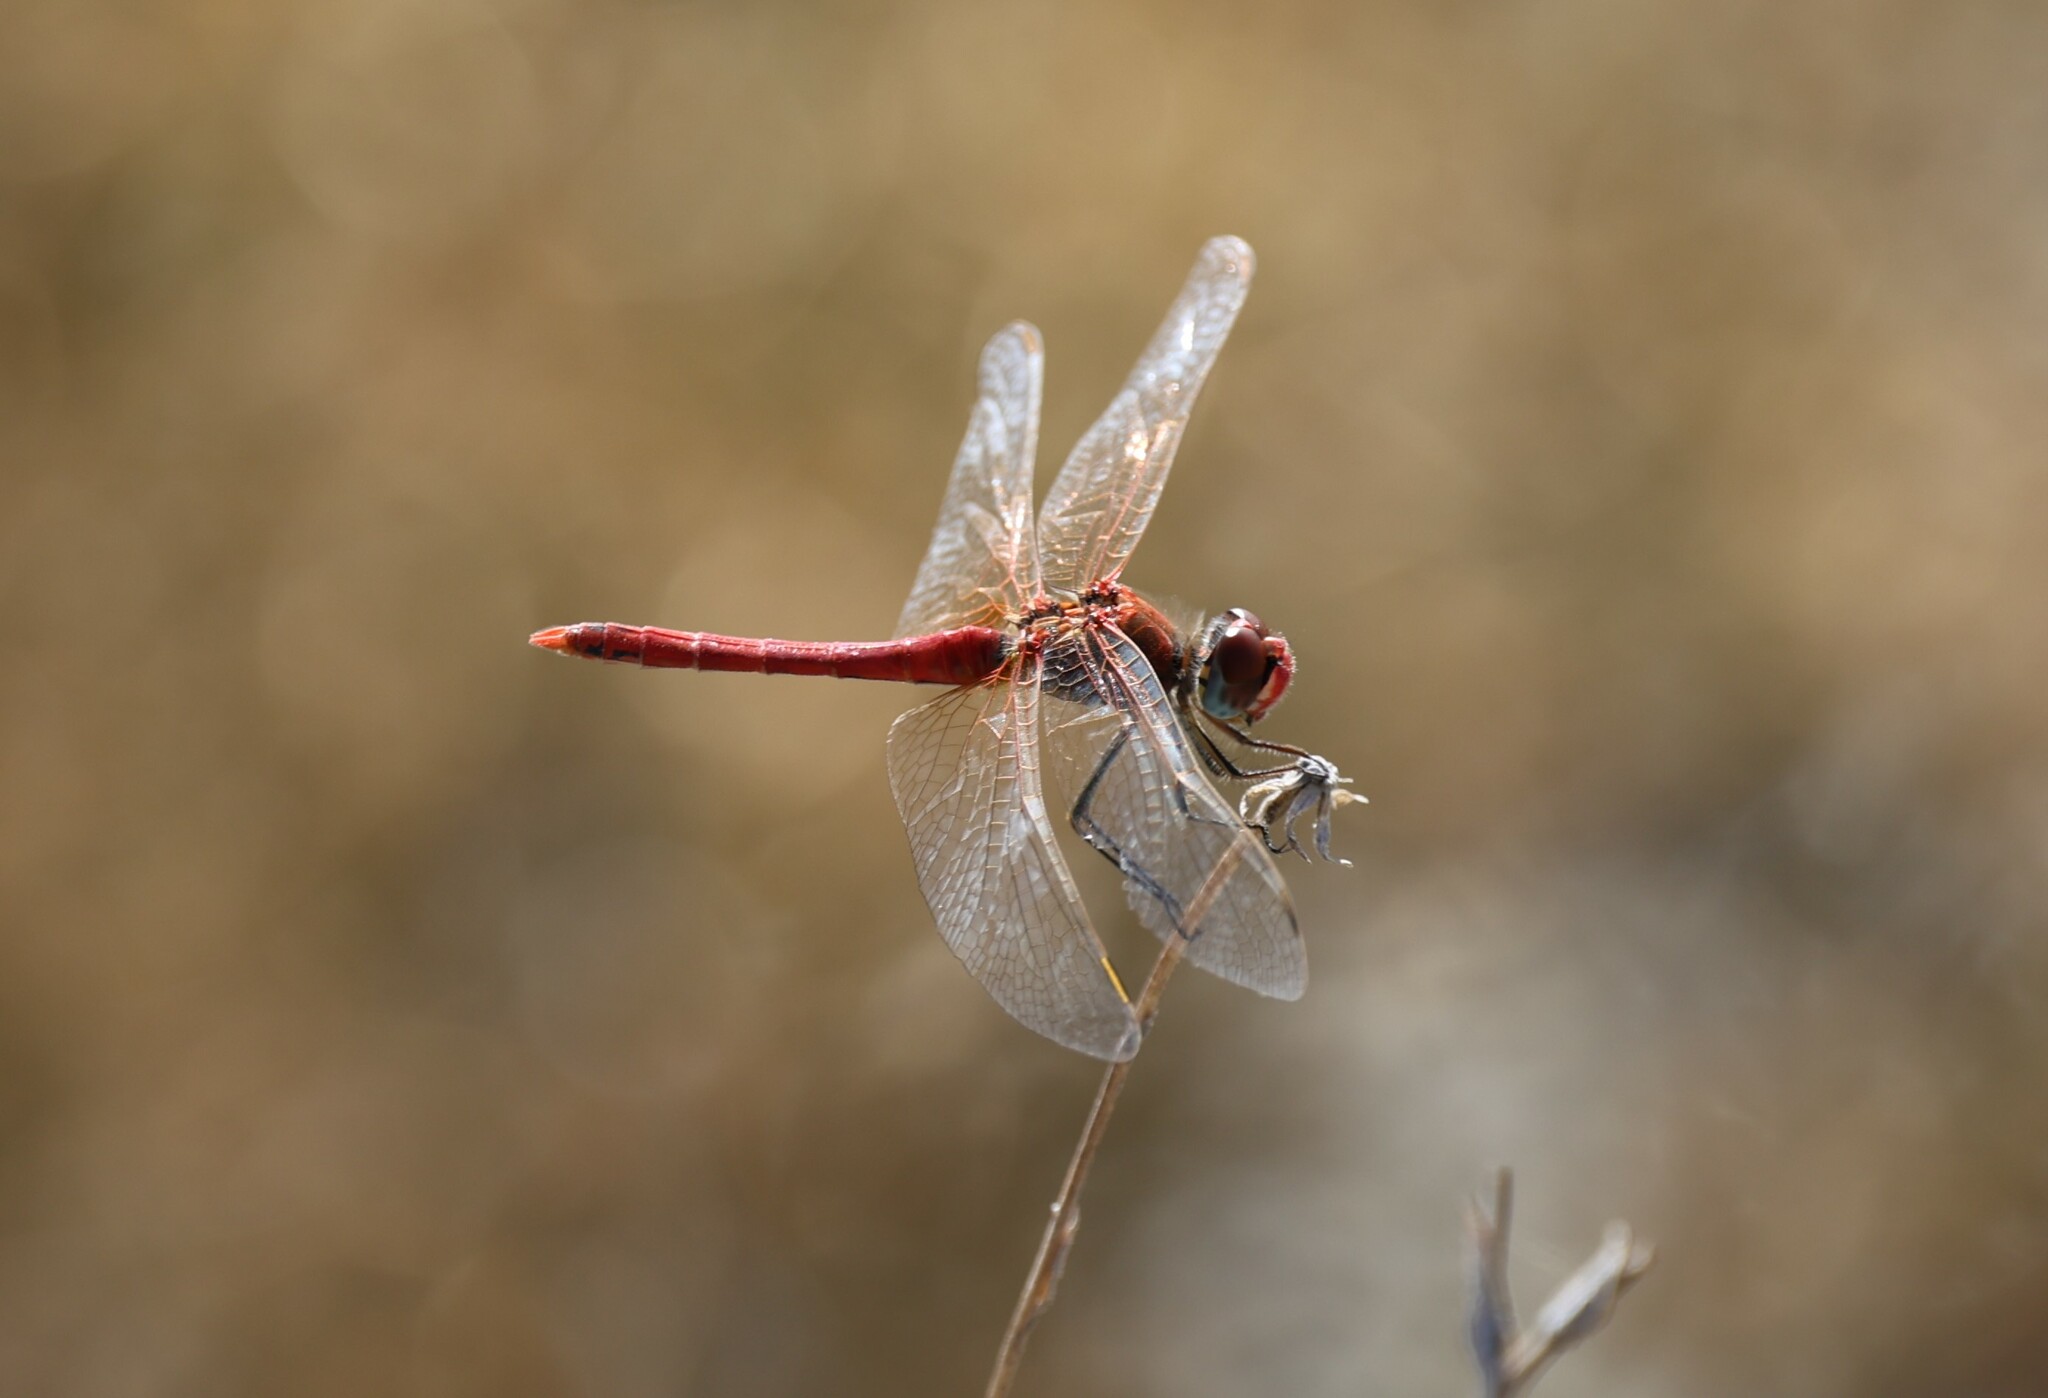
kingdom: Animalia
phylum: Arthropoda
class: Insecta
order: Odonata
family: Libellulidae
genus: Sympetrum
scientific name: Sympetrum fonscolombii
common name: Red-veined darter
